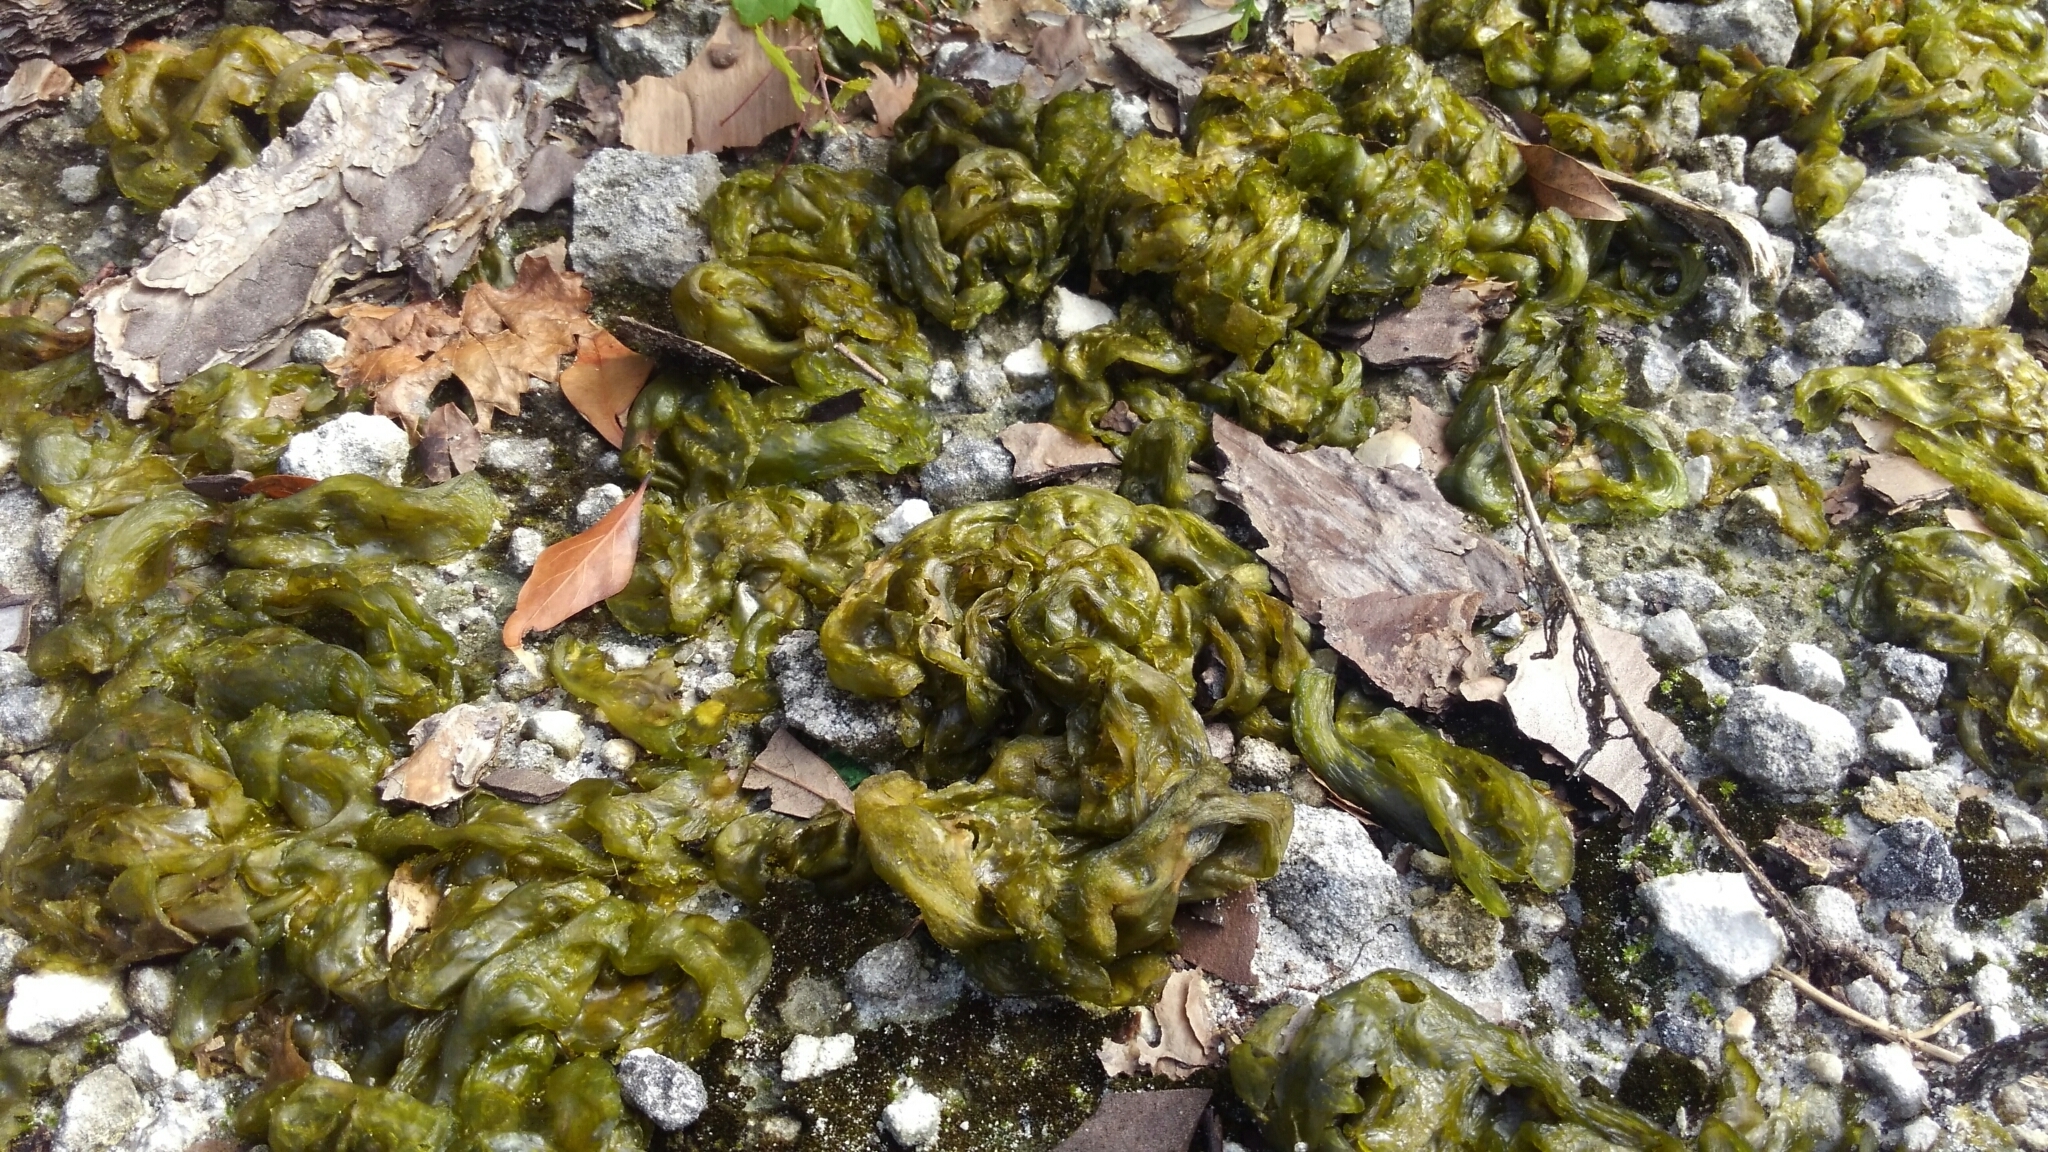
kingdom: Bacteria
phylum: Cyanobacteria
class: Cyanobacteriia
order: Cyanobacteriales
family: Nostocaceae
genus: Nostoc
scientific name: Nostoc commune
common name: Star jelly
